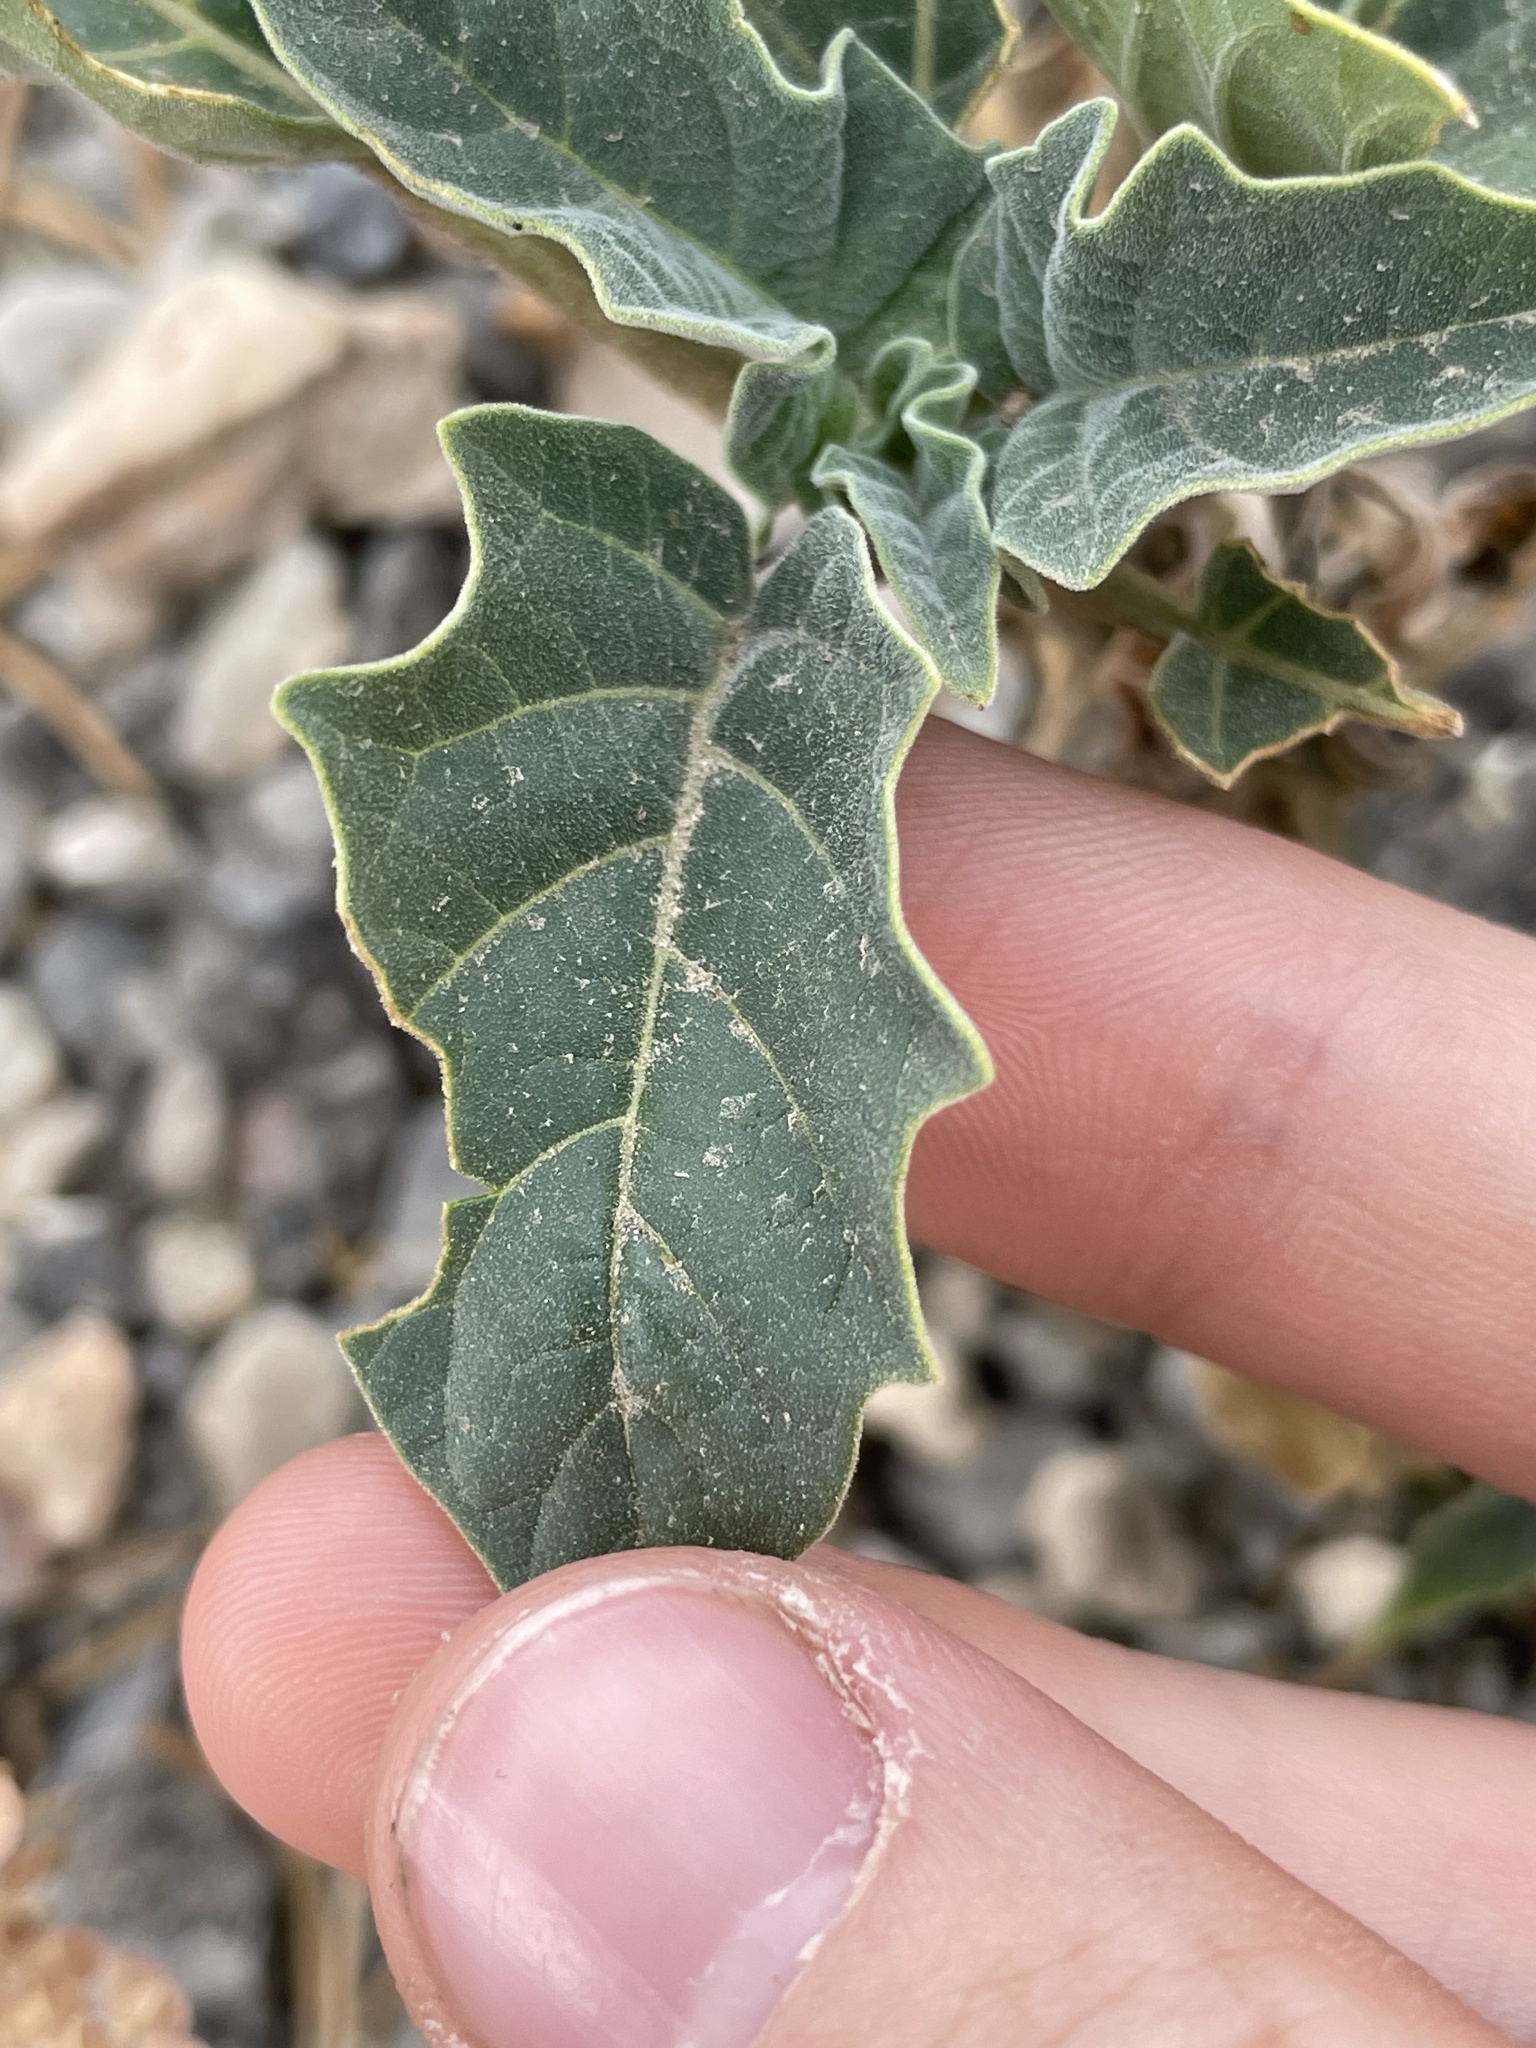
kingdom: Plantae
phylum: Tracheophyta
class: Magnoliopsida
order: Solanales
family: Solanaceae
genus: Datura
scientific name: Datura wrightii
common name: Sacred thorn-apple
